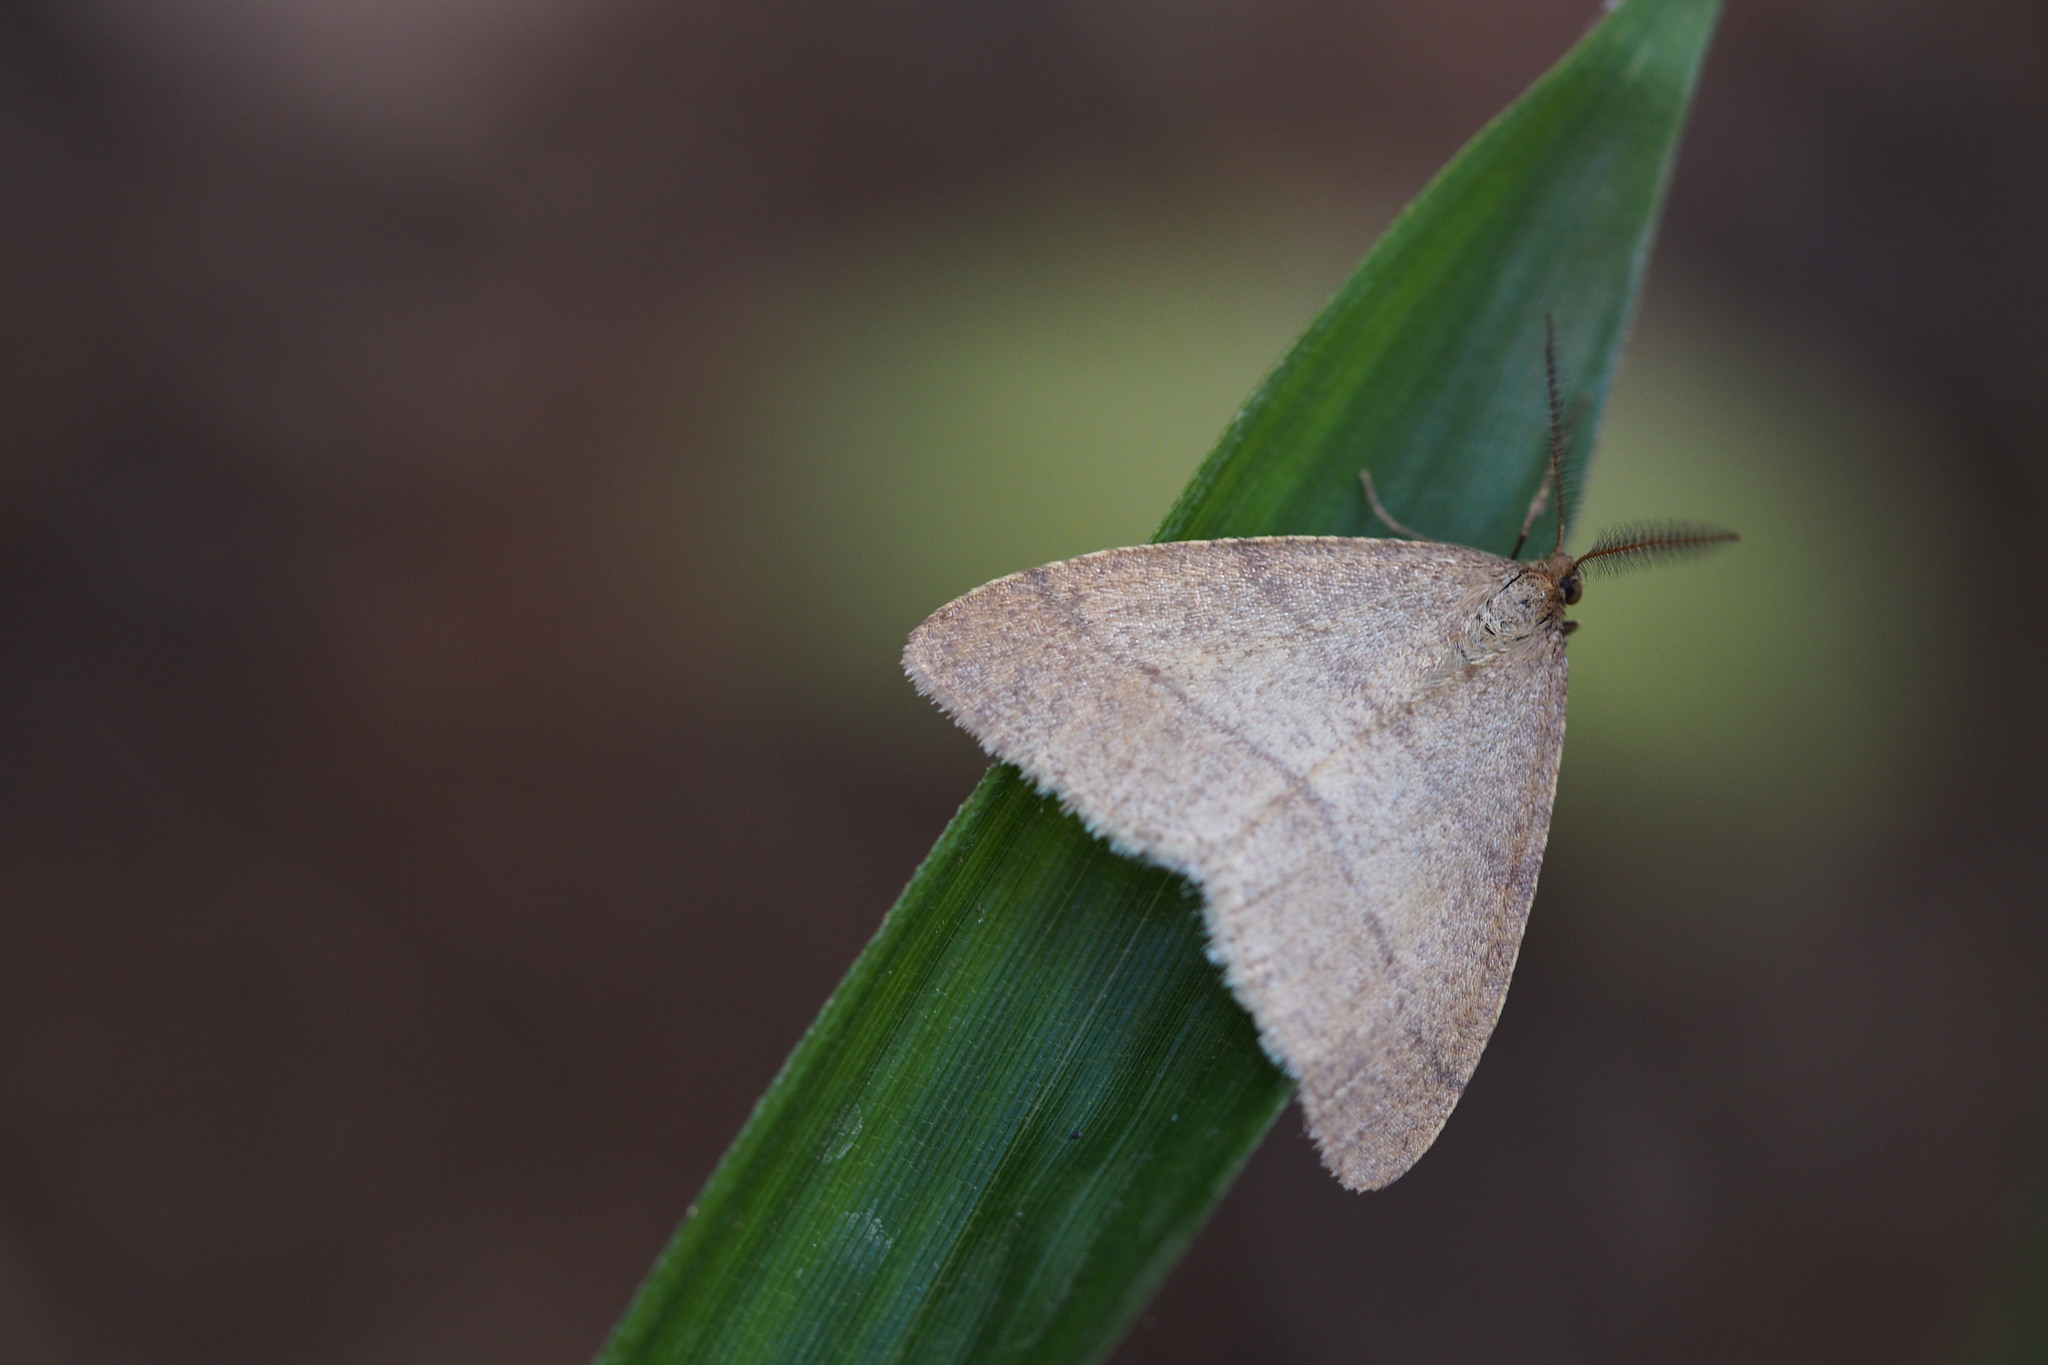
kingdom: Animalia
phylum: Arthropoda
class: Insecta
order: Lepidoptera
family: Geometridae
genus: Pachyerannis
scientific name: Pachyerannis obliquaria
